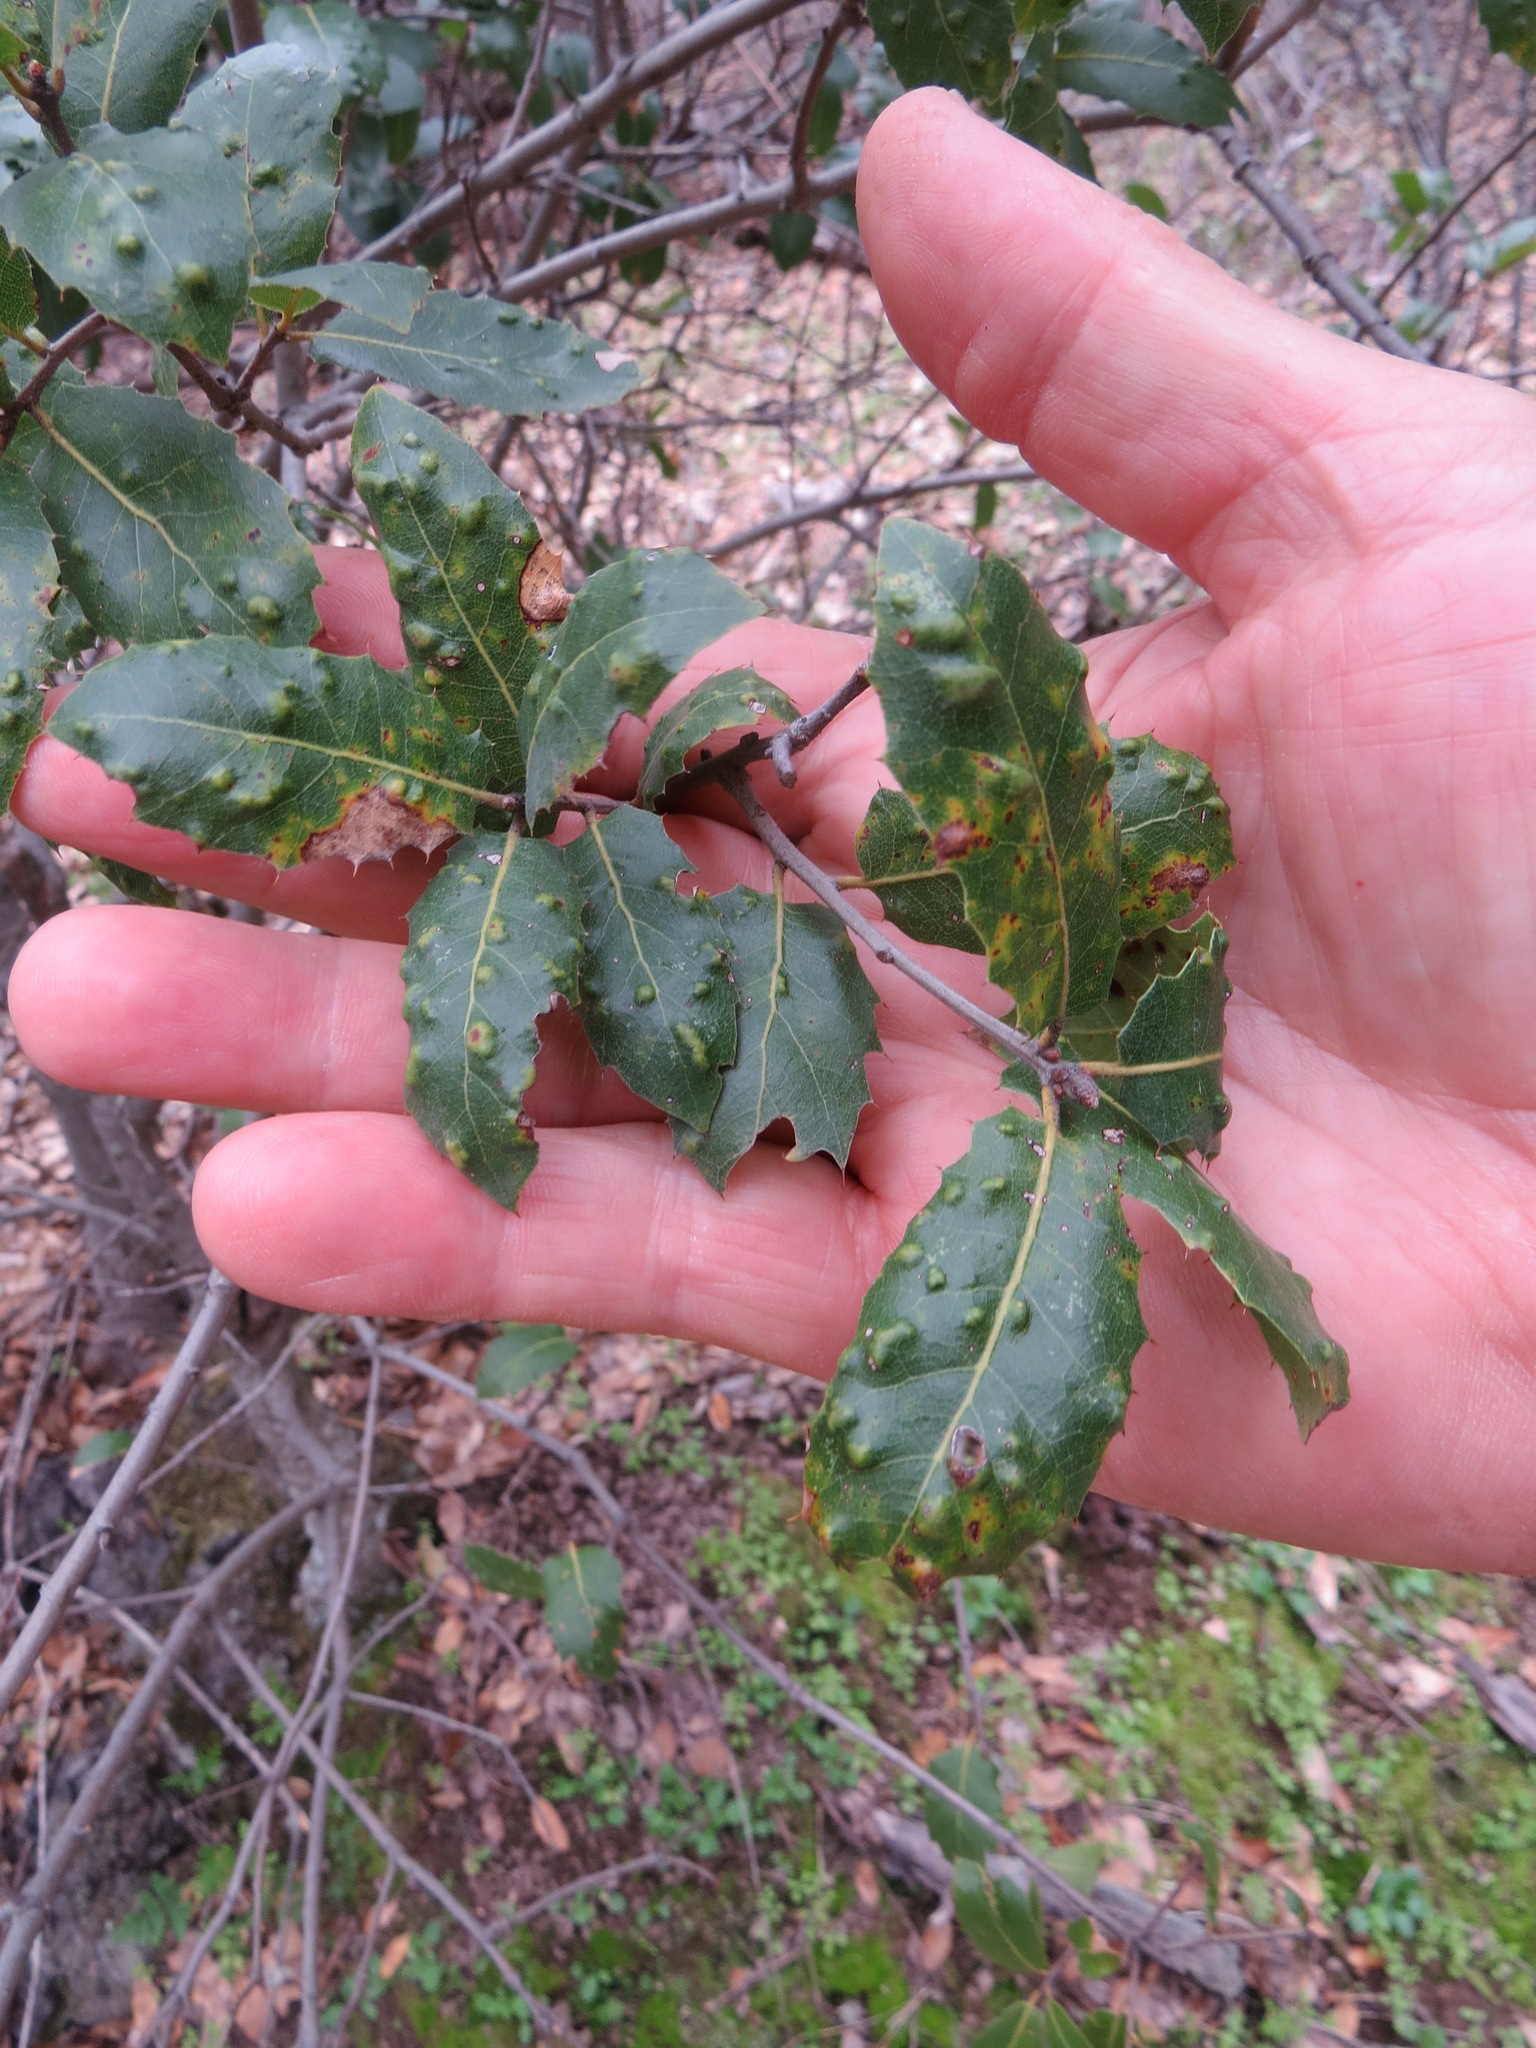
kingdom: Animalia
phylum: Arthropoda
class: Arachnida
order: Trombidiformes
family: Eriophyidae
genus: Aceria
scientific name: Aceria
